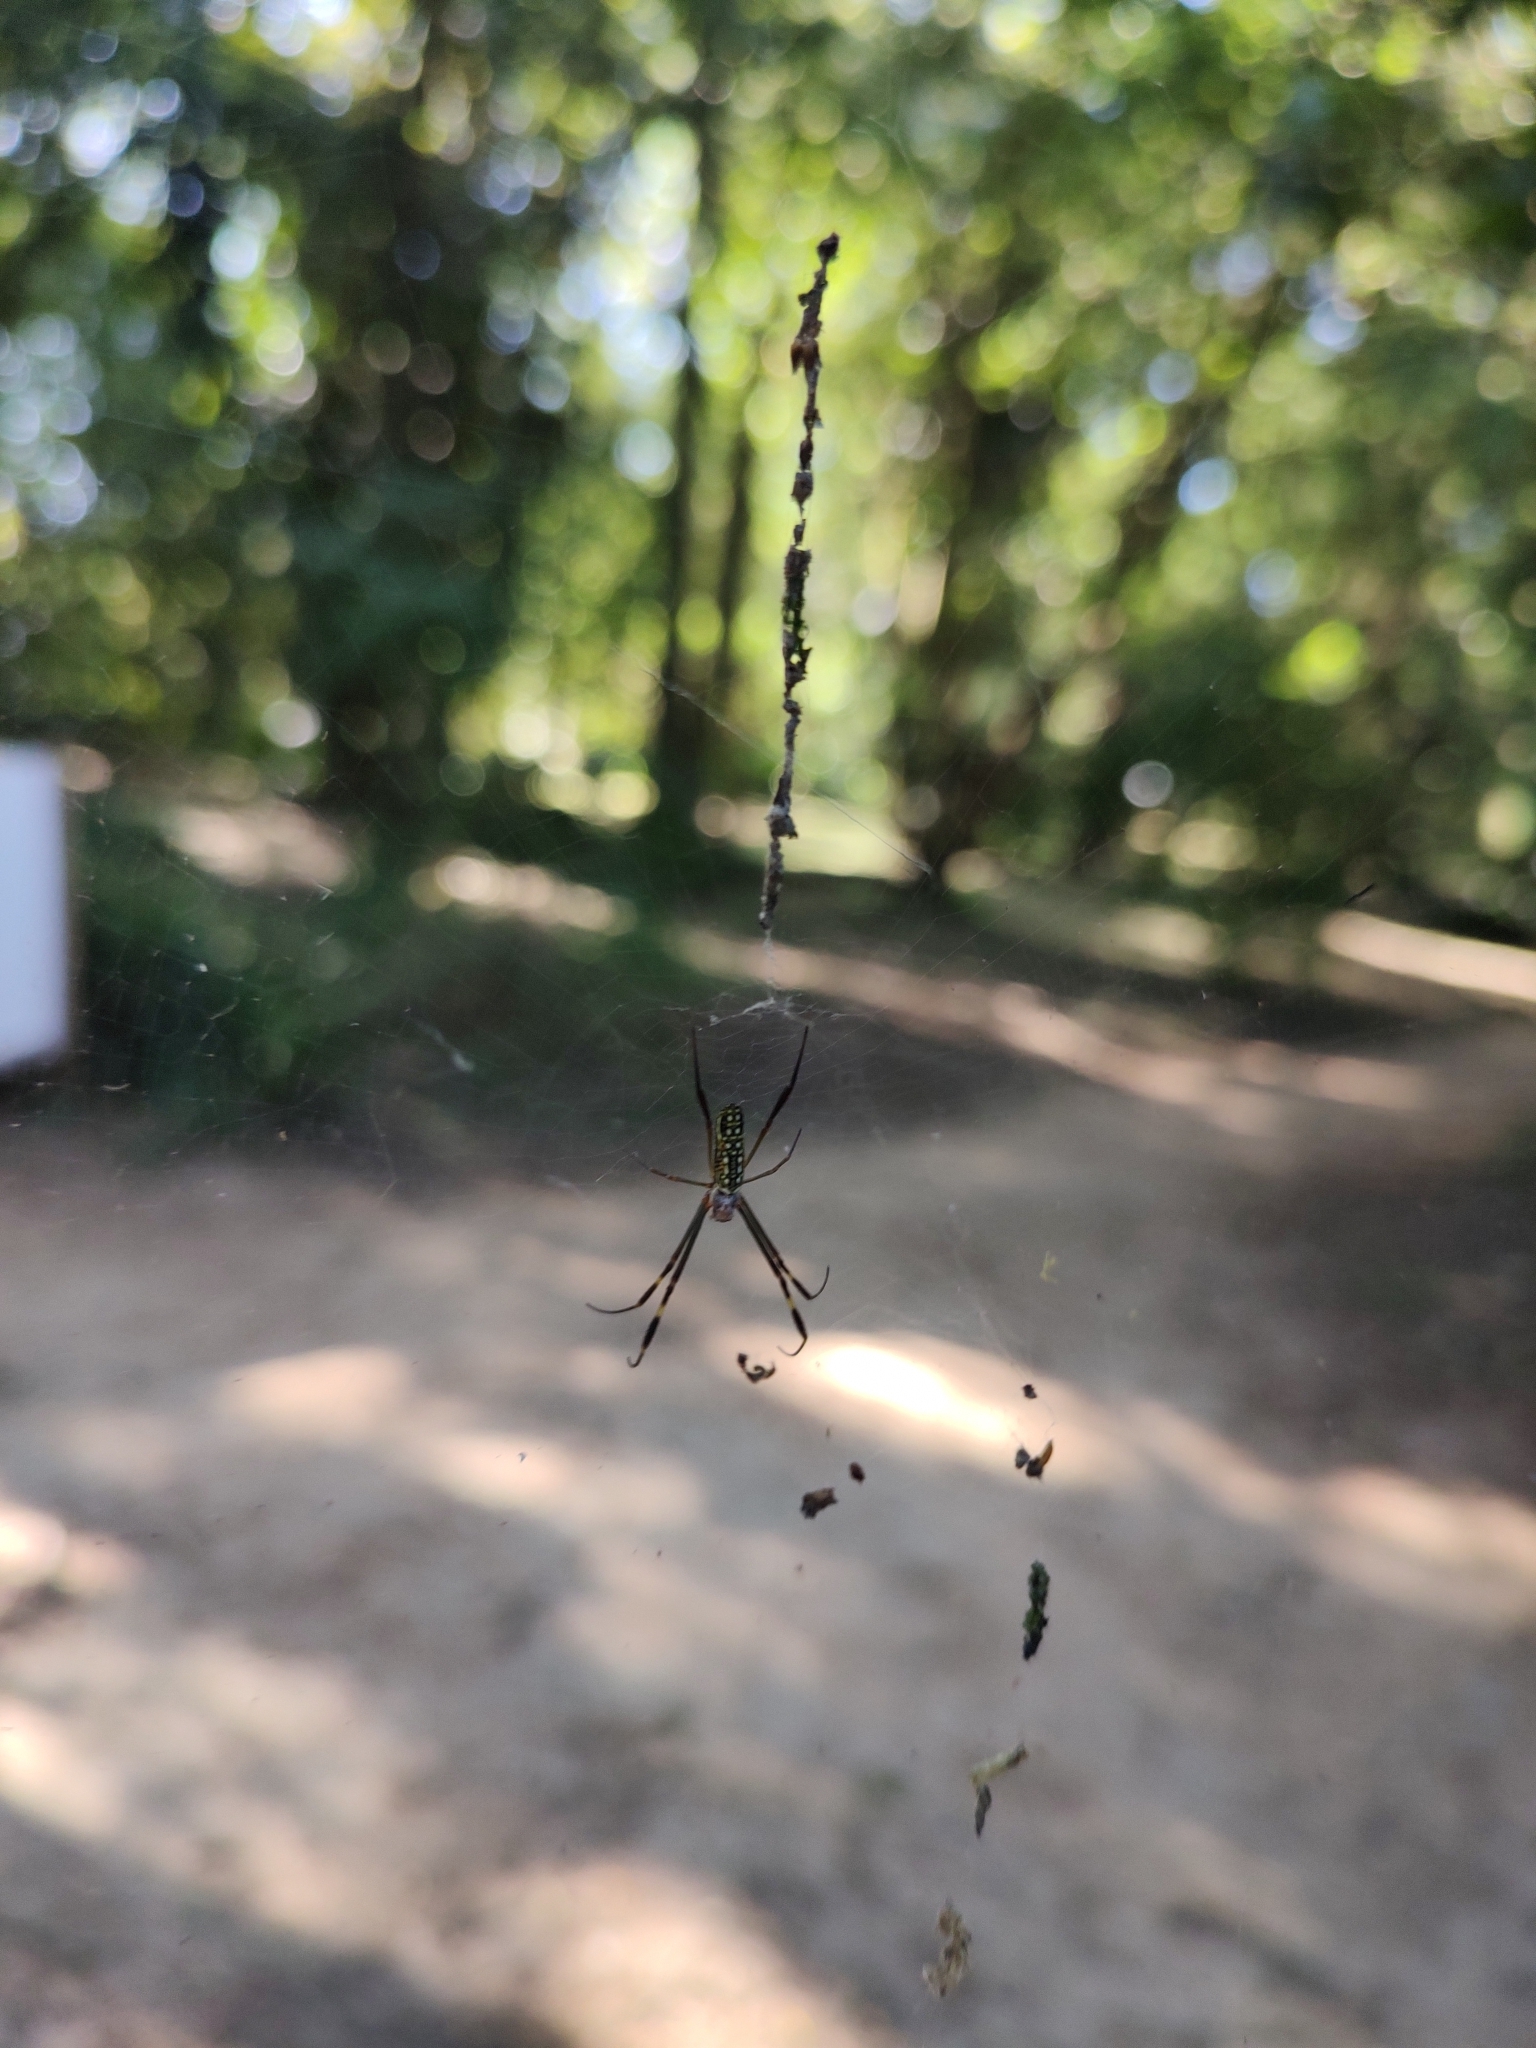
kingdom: Animalia
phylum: Arthropoda
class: Arachnida
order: Araneae
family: Araneidae
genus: Trichonephila
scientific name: Trichonephila clavipes
